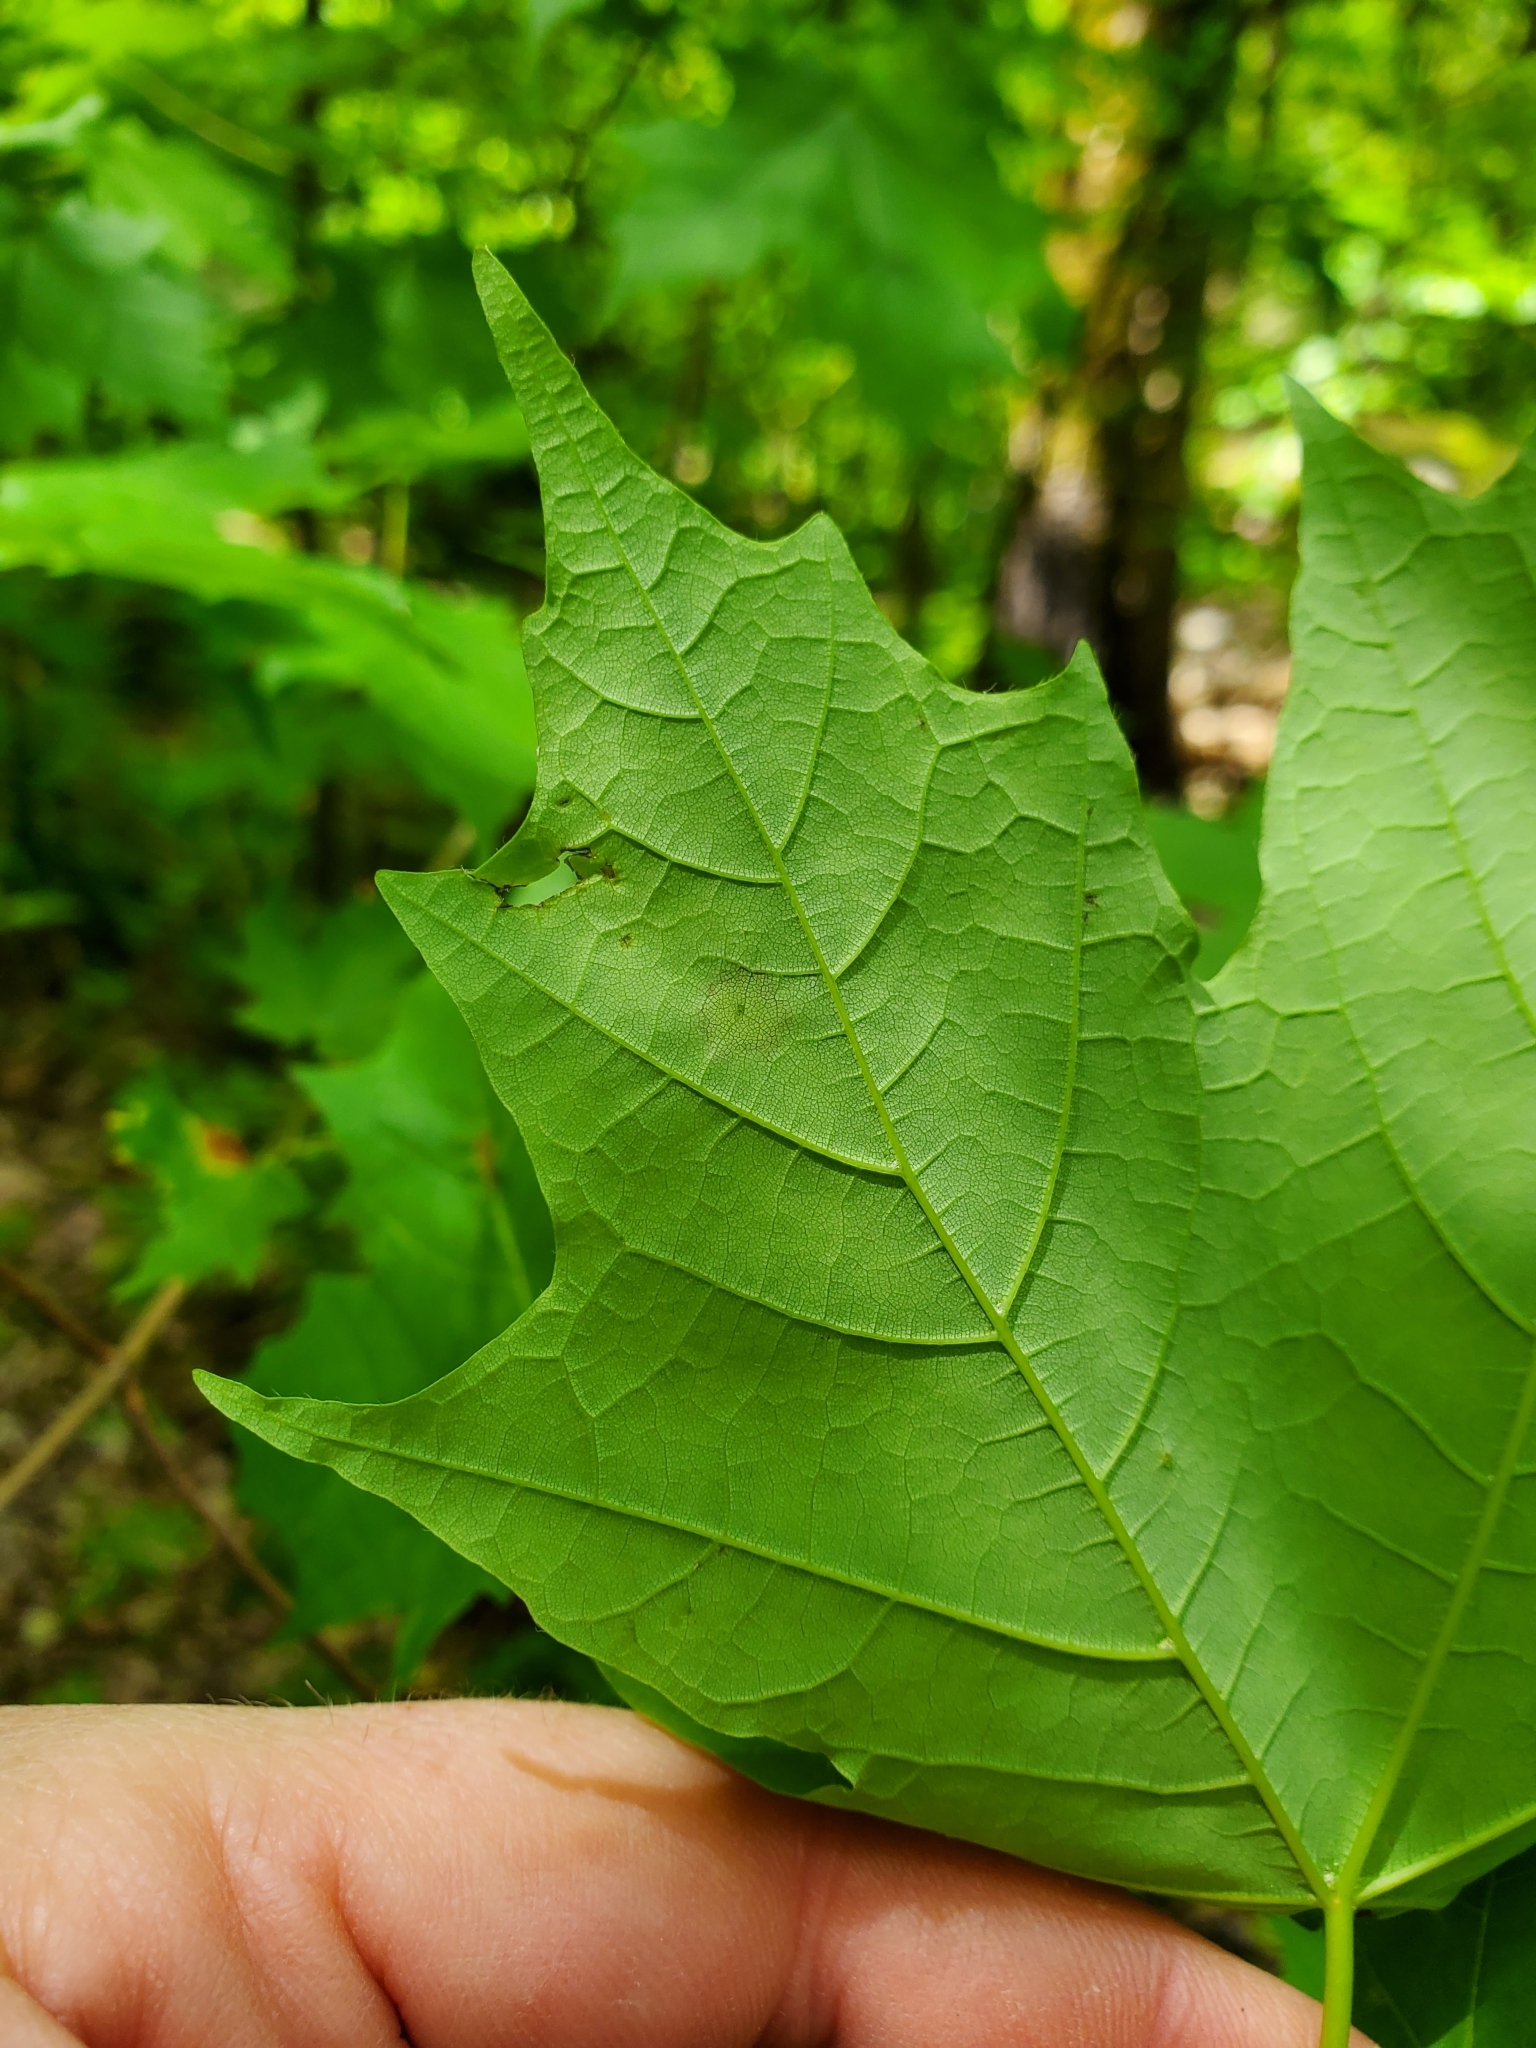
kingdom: Plantae
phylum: Tracheophyta
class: Magnoliopsida
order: Sapindales
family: Sapindaceae
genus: Acer
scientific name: Acer saccharum
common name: Sugar maple
